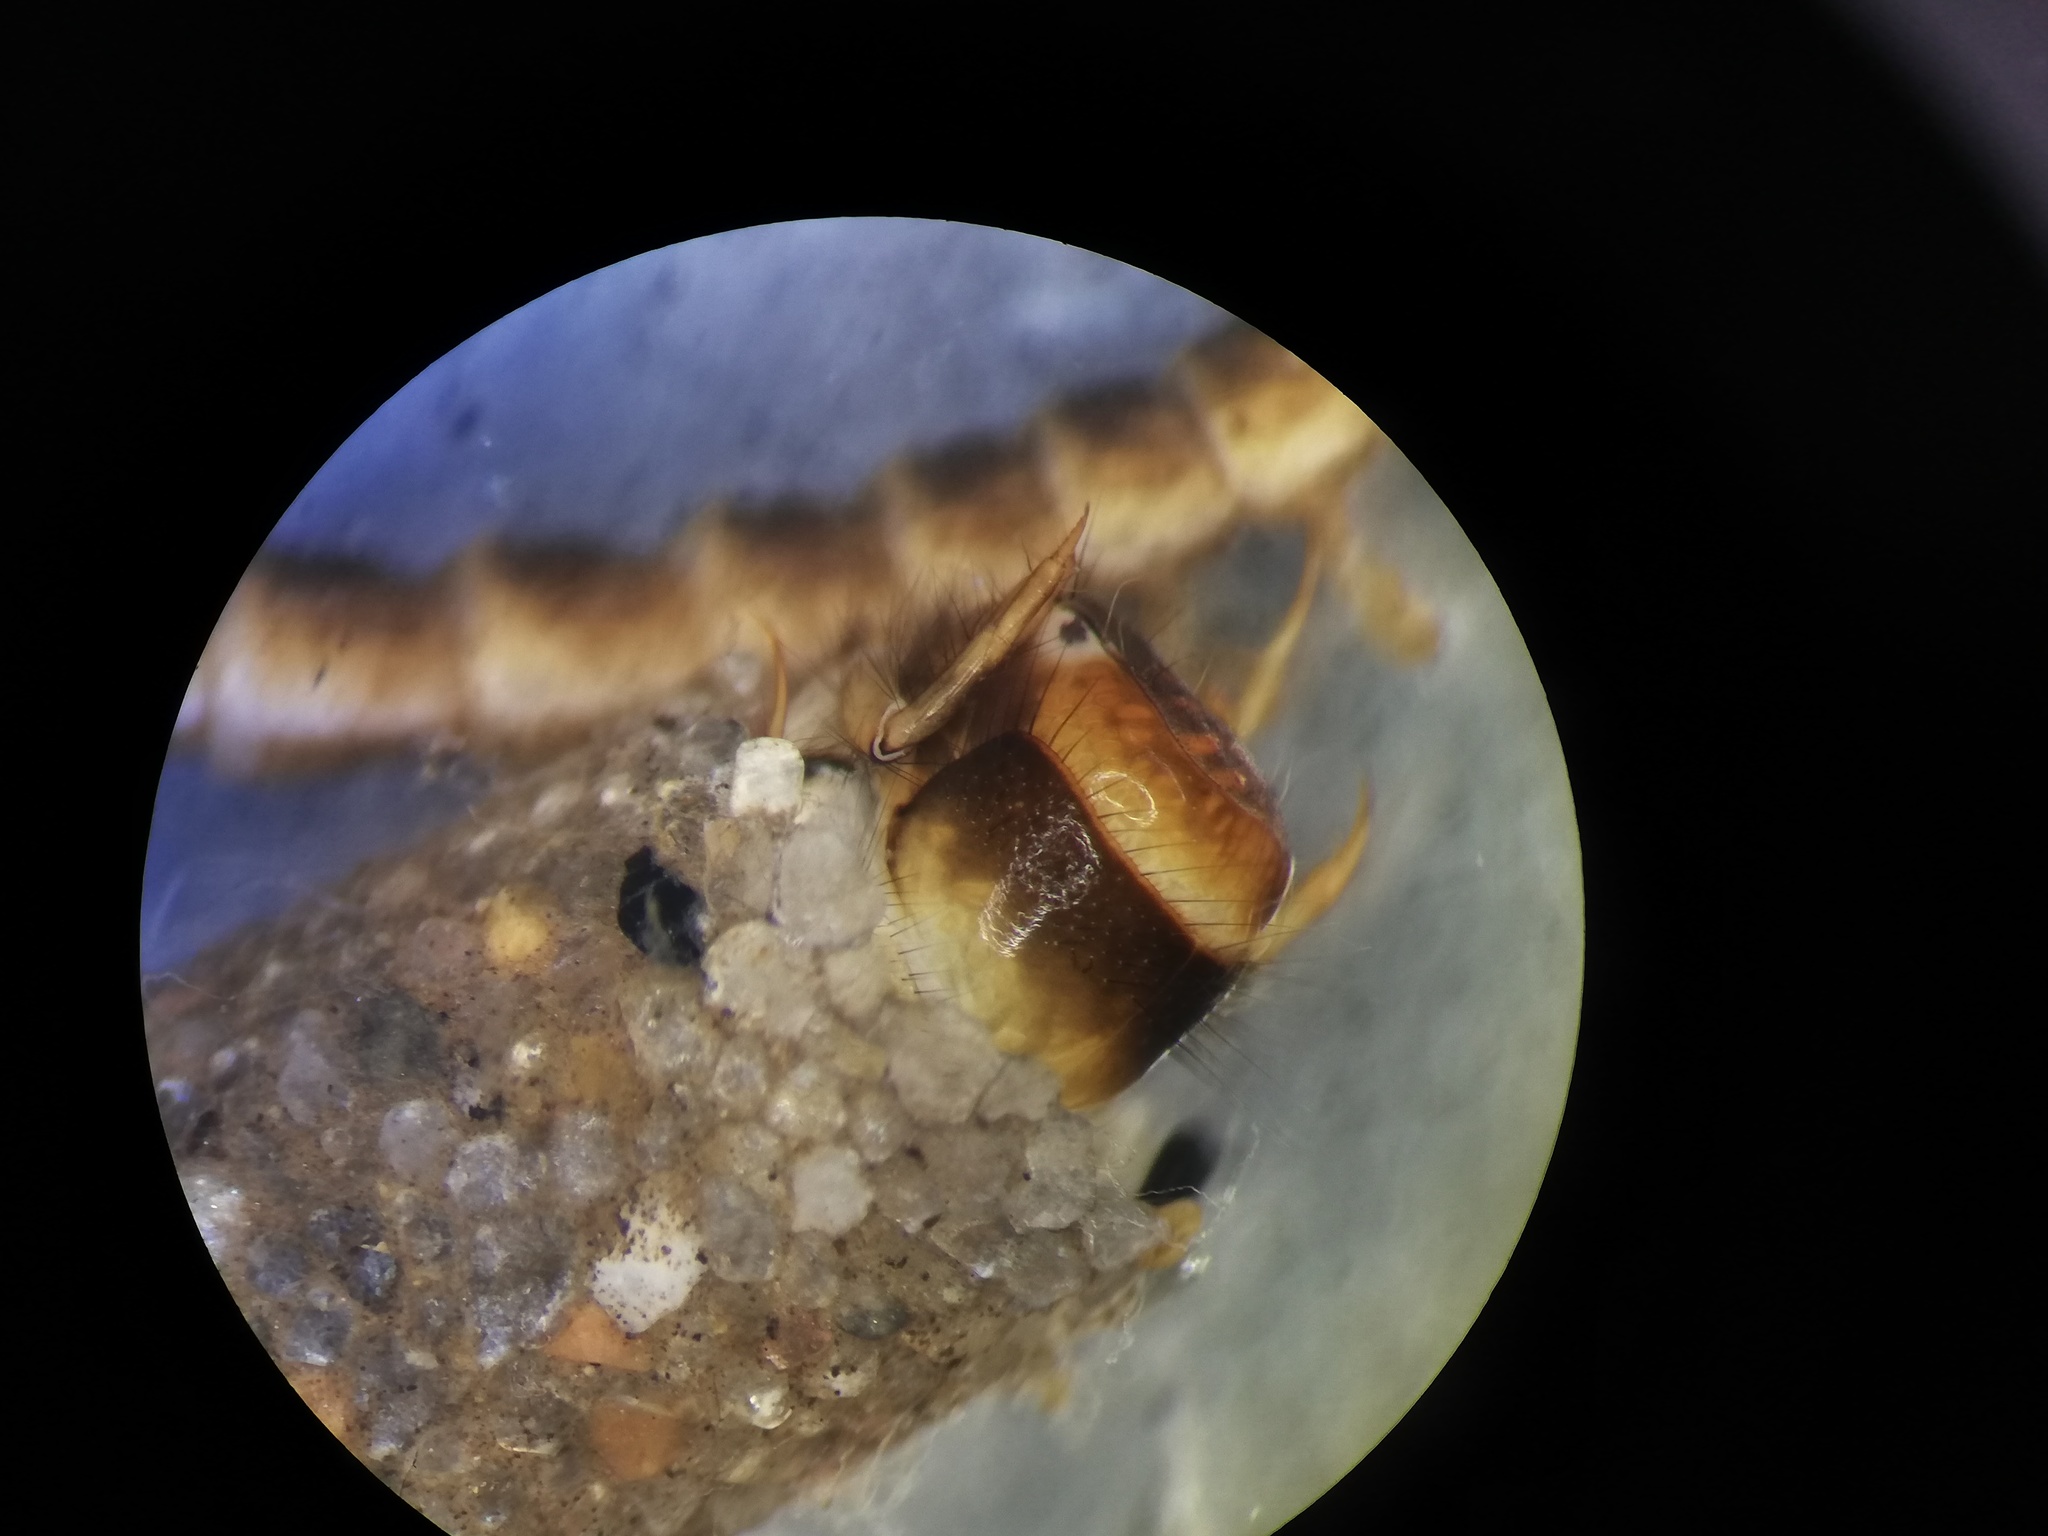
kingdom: Animalia
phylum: Arthropoda
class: Insecta
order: Trichoptera
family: Sericostomatidae
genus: Notidobia
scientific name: Notidobia ciliaris
